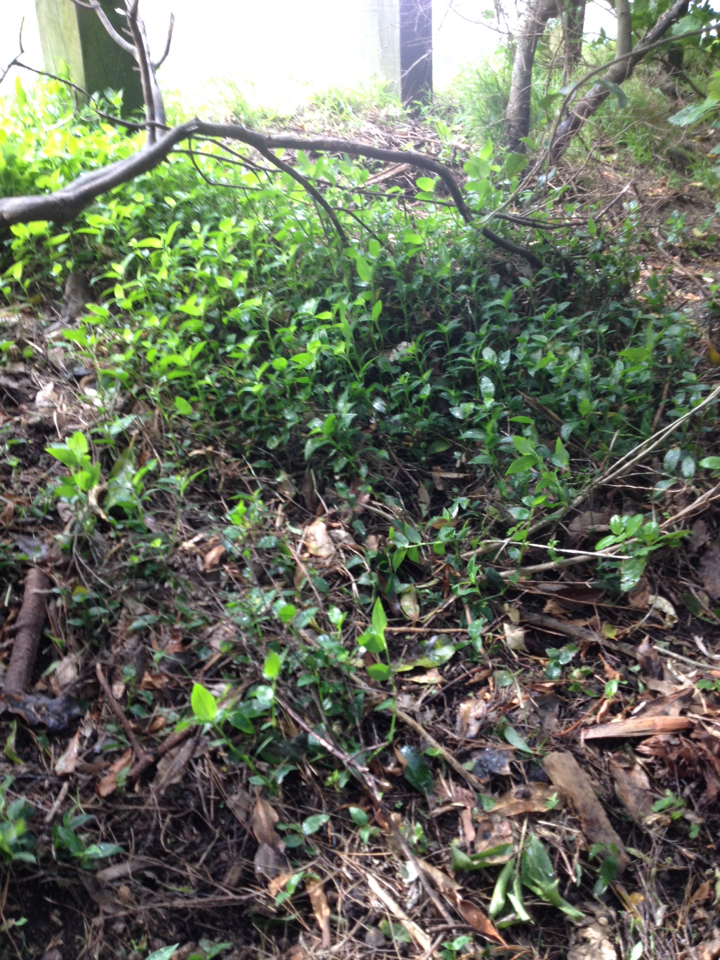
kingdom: Plantae
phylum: Tracheophyta
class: Liliopsida
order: Commelinales
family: Commelinaceae
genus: Tradescantia
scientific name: Tradescantia fluminensis
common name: Wandering-jew
